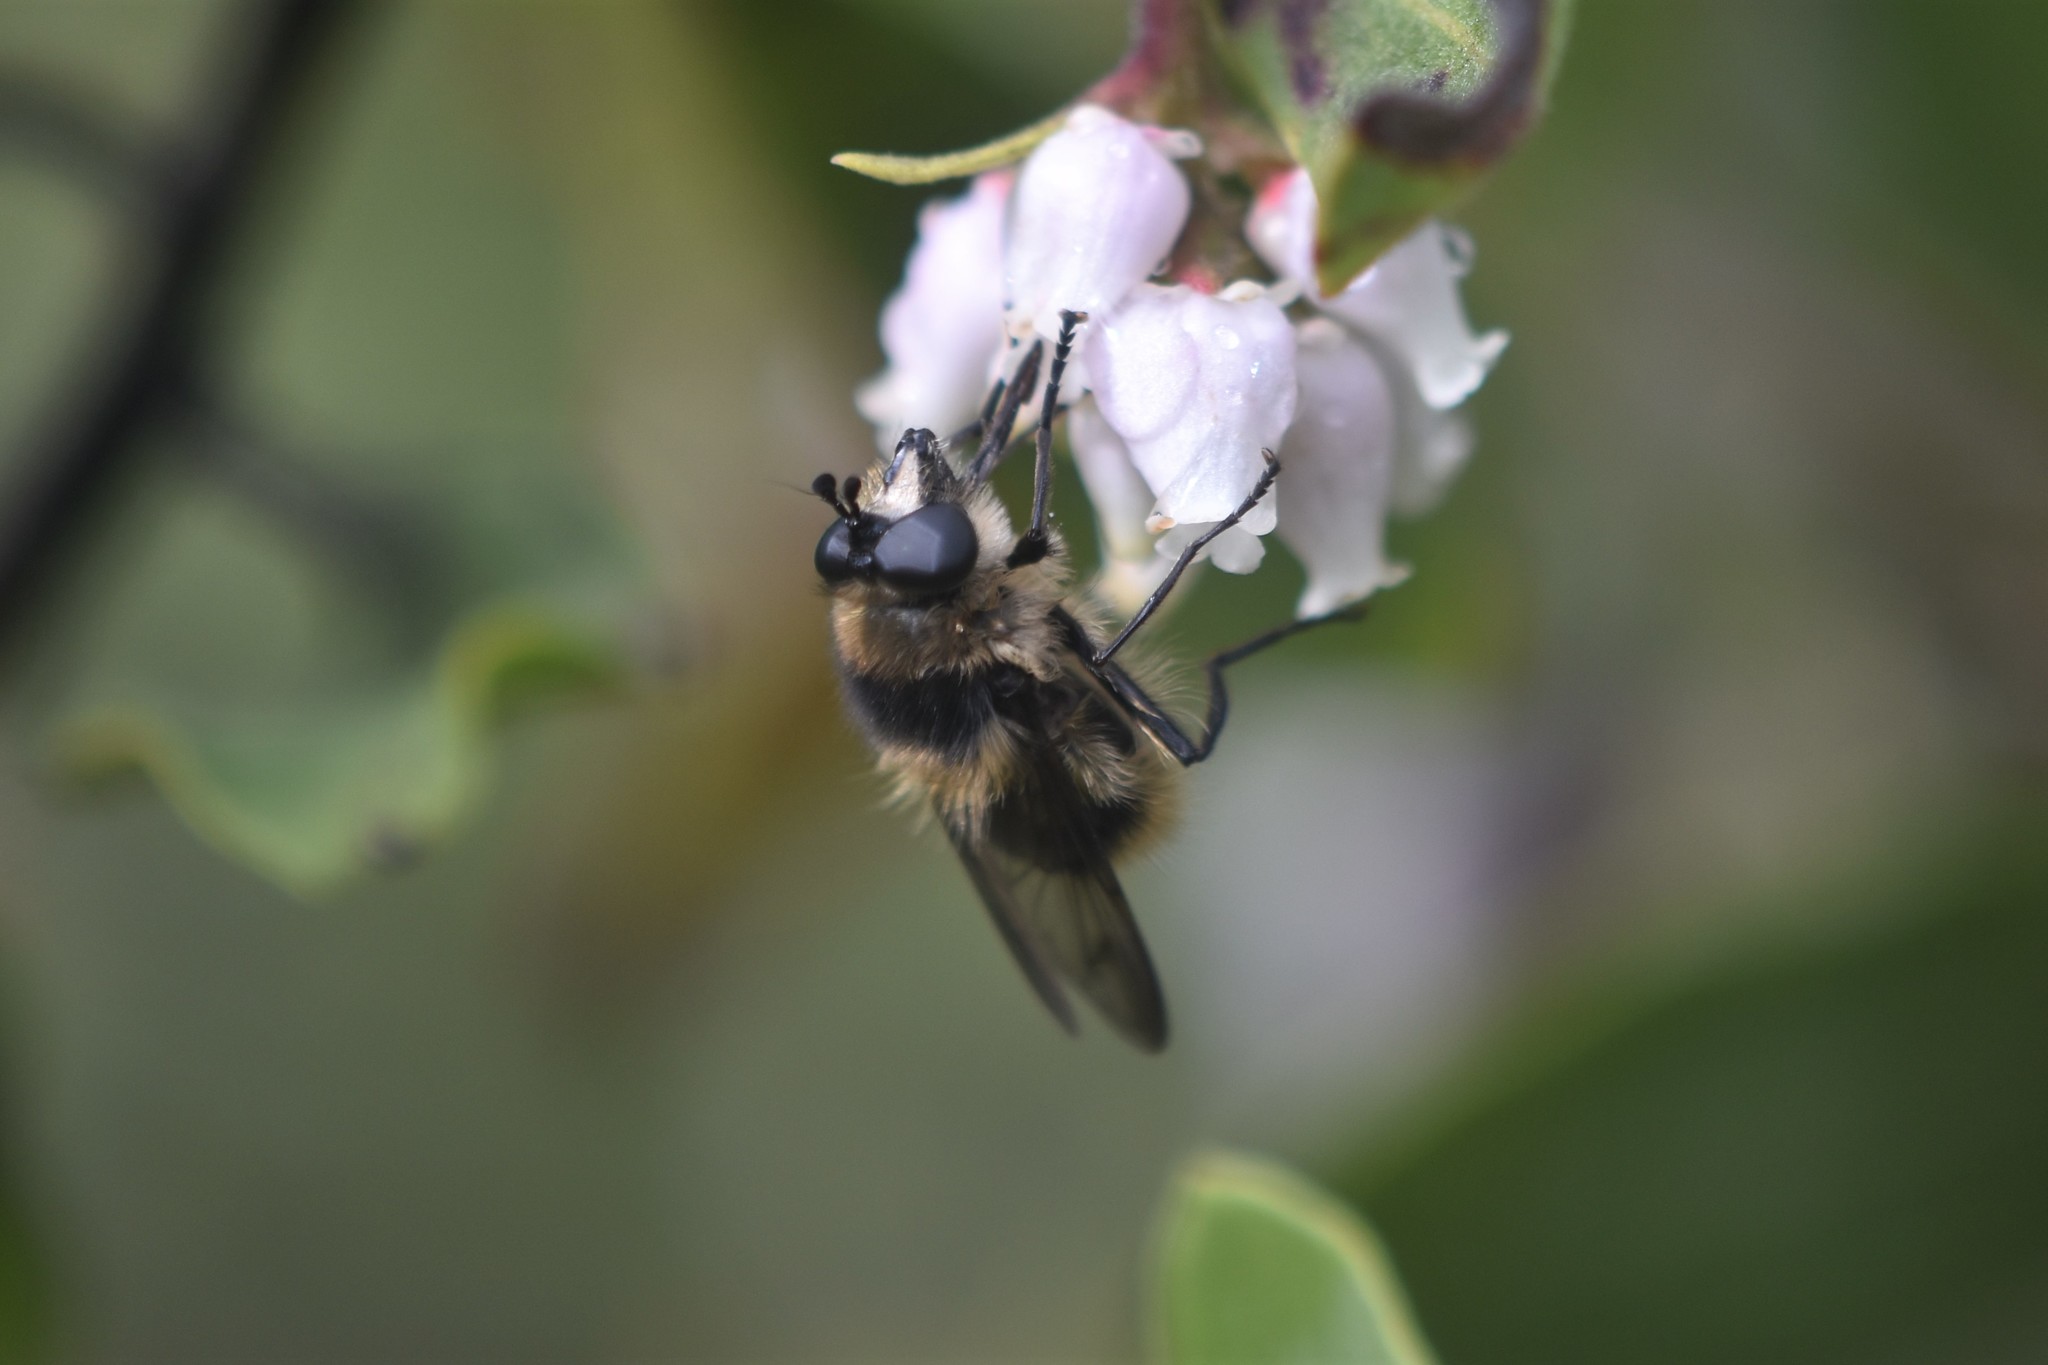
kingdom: Animalia
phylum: Arthropoda
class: Insecta
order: Diptera
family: Syrphidae
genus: Criorhina
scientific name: Criorhina nigripes
